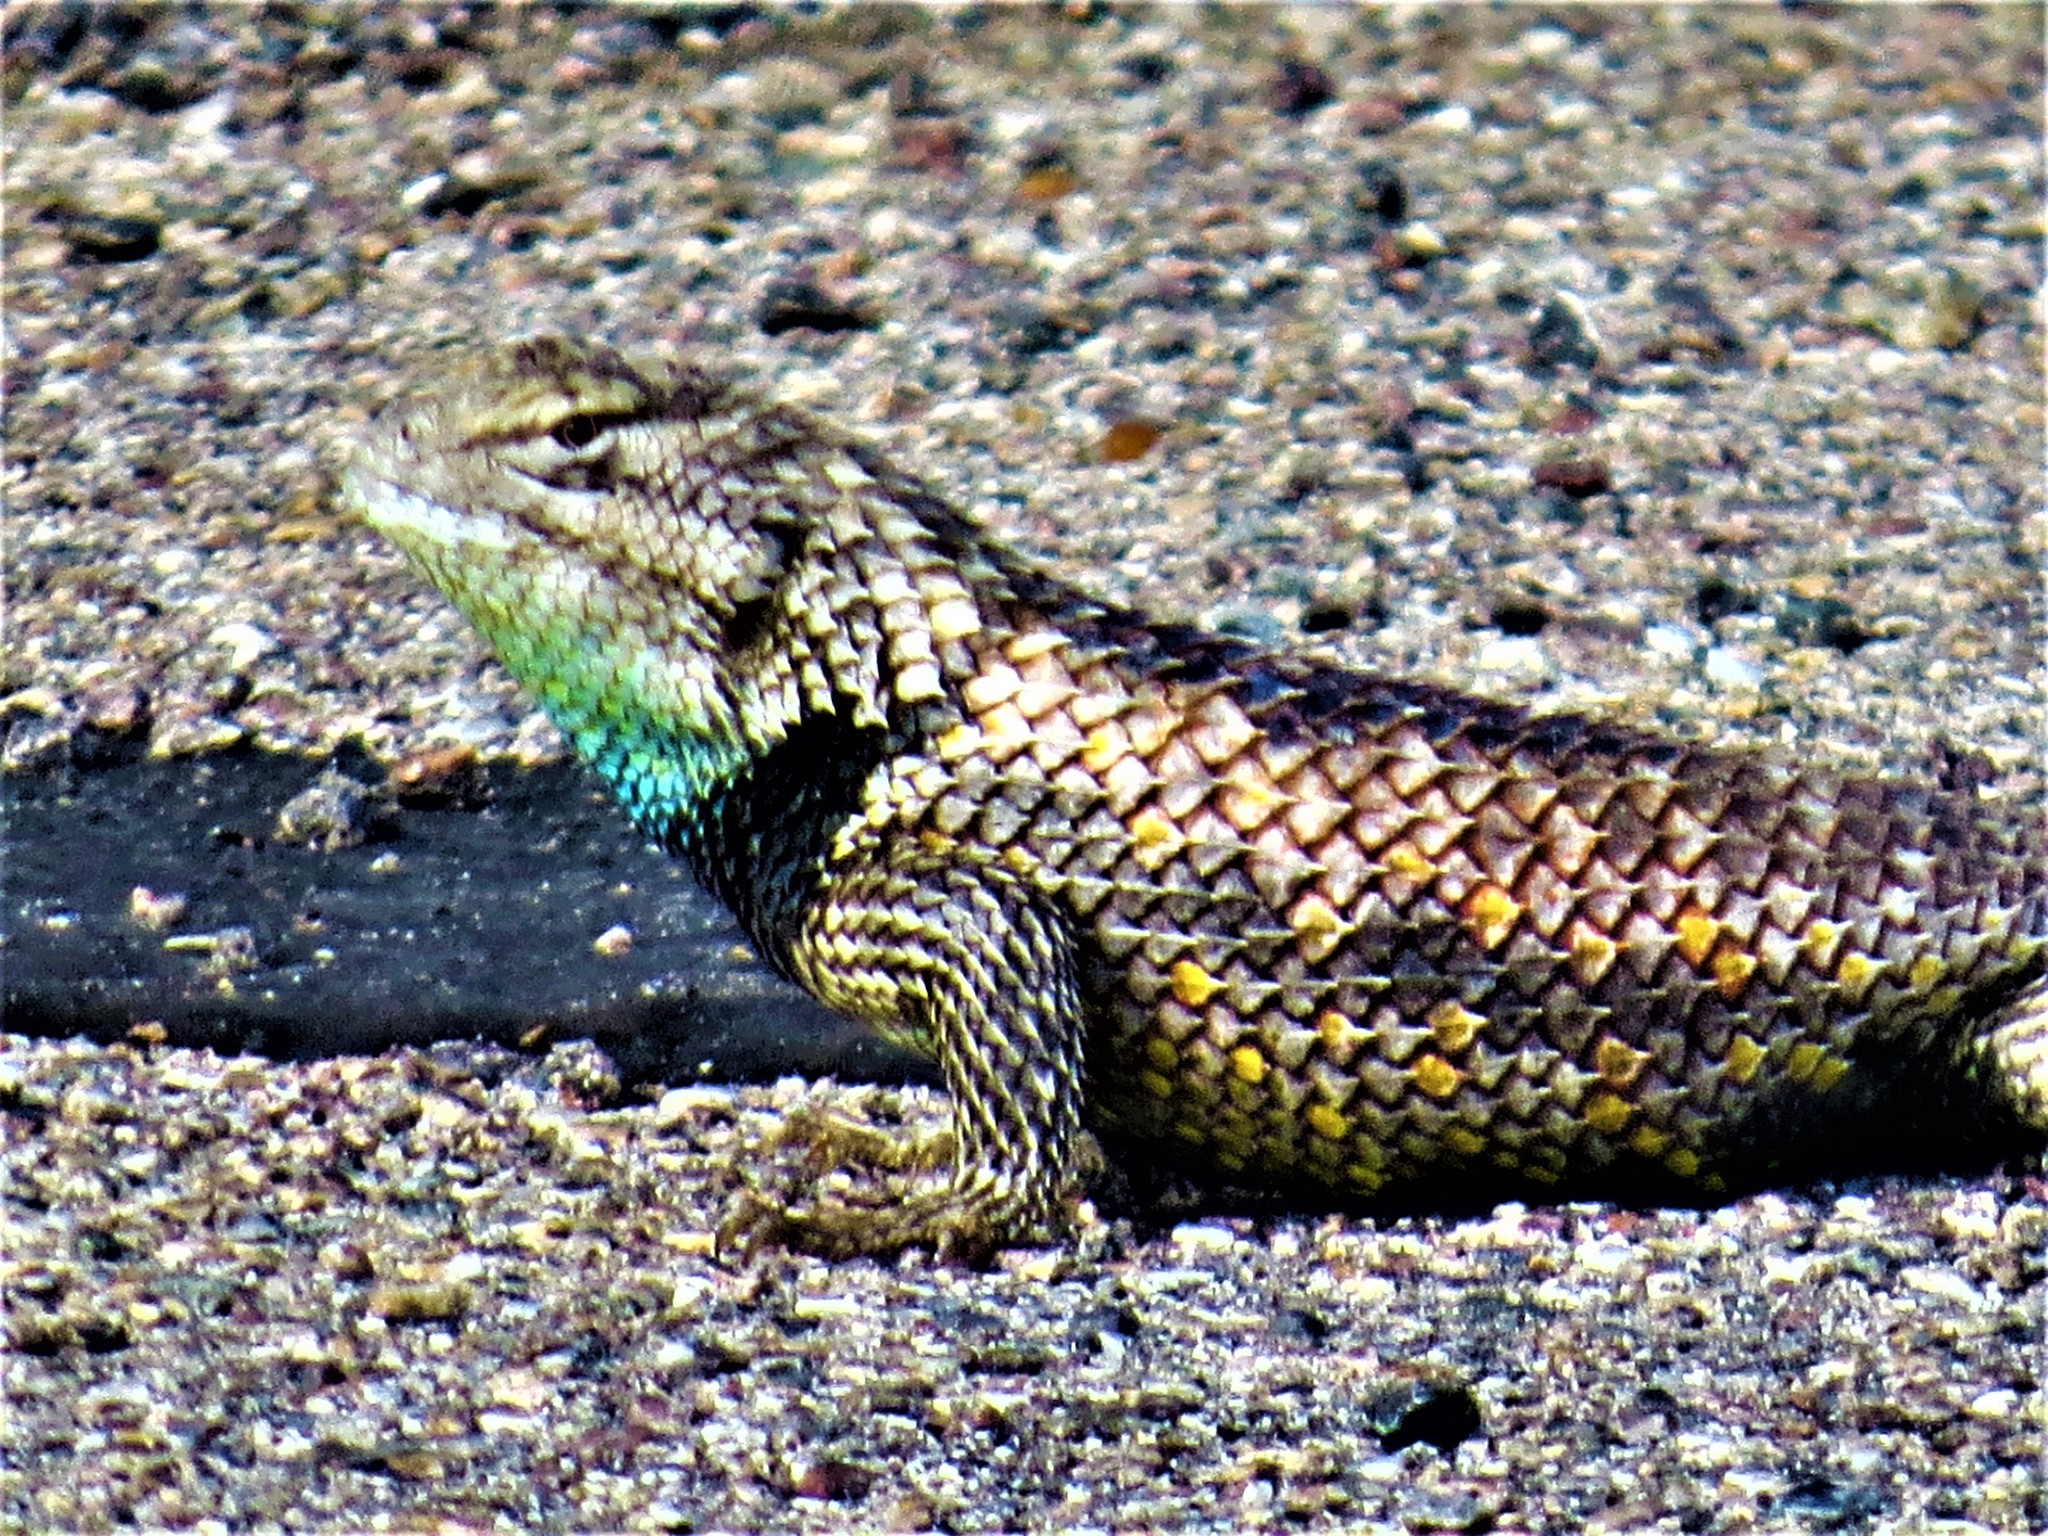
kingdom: Animalia
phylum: Chordata
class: Squamata
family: Phrynosomatidae
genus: Sceloporus
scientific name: Sceloporus magister
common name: Desert spiny lizard
